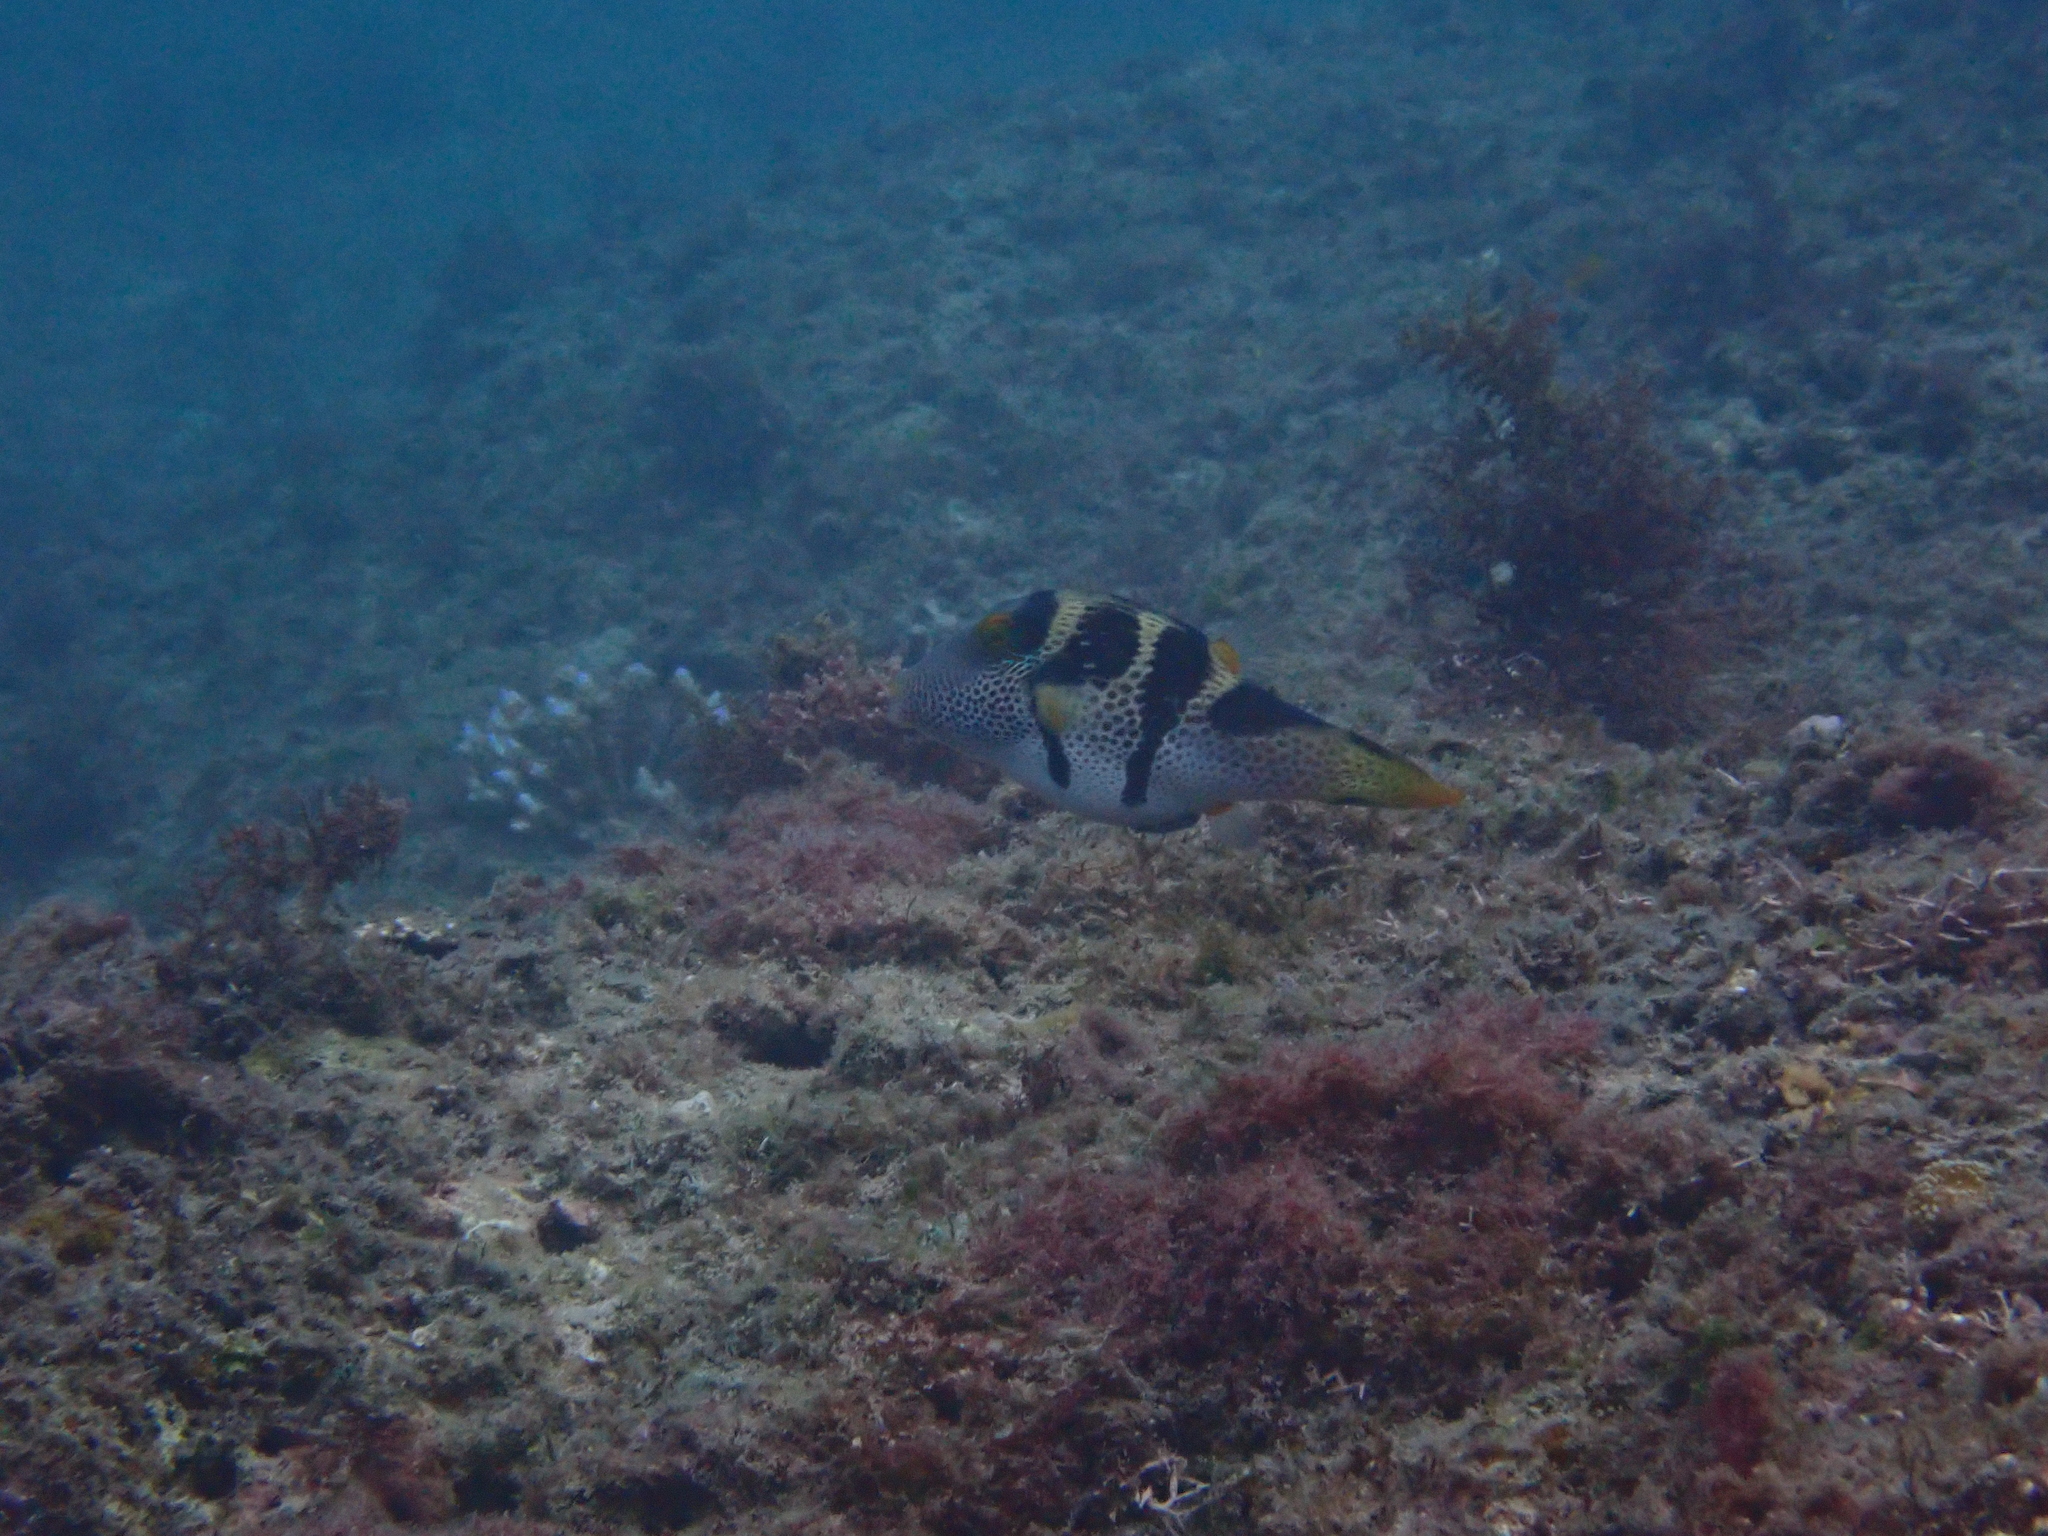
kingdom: Animalia
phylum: Chordata
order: Tetraodontiformes
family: Tetraodontidae
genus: Canthigaster
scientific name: Canthigaster valentini
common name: Banded toby
